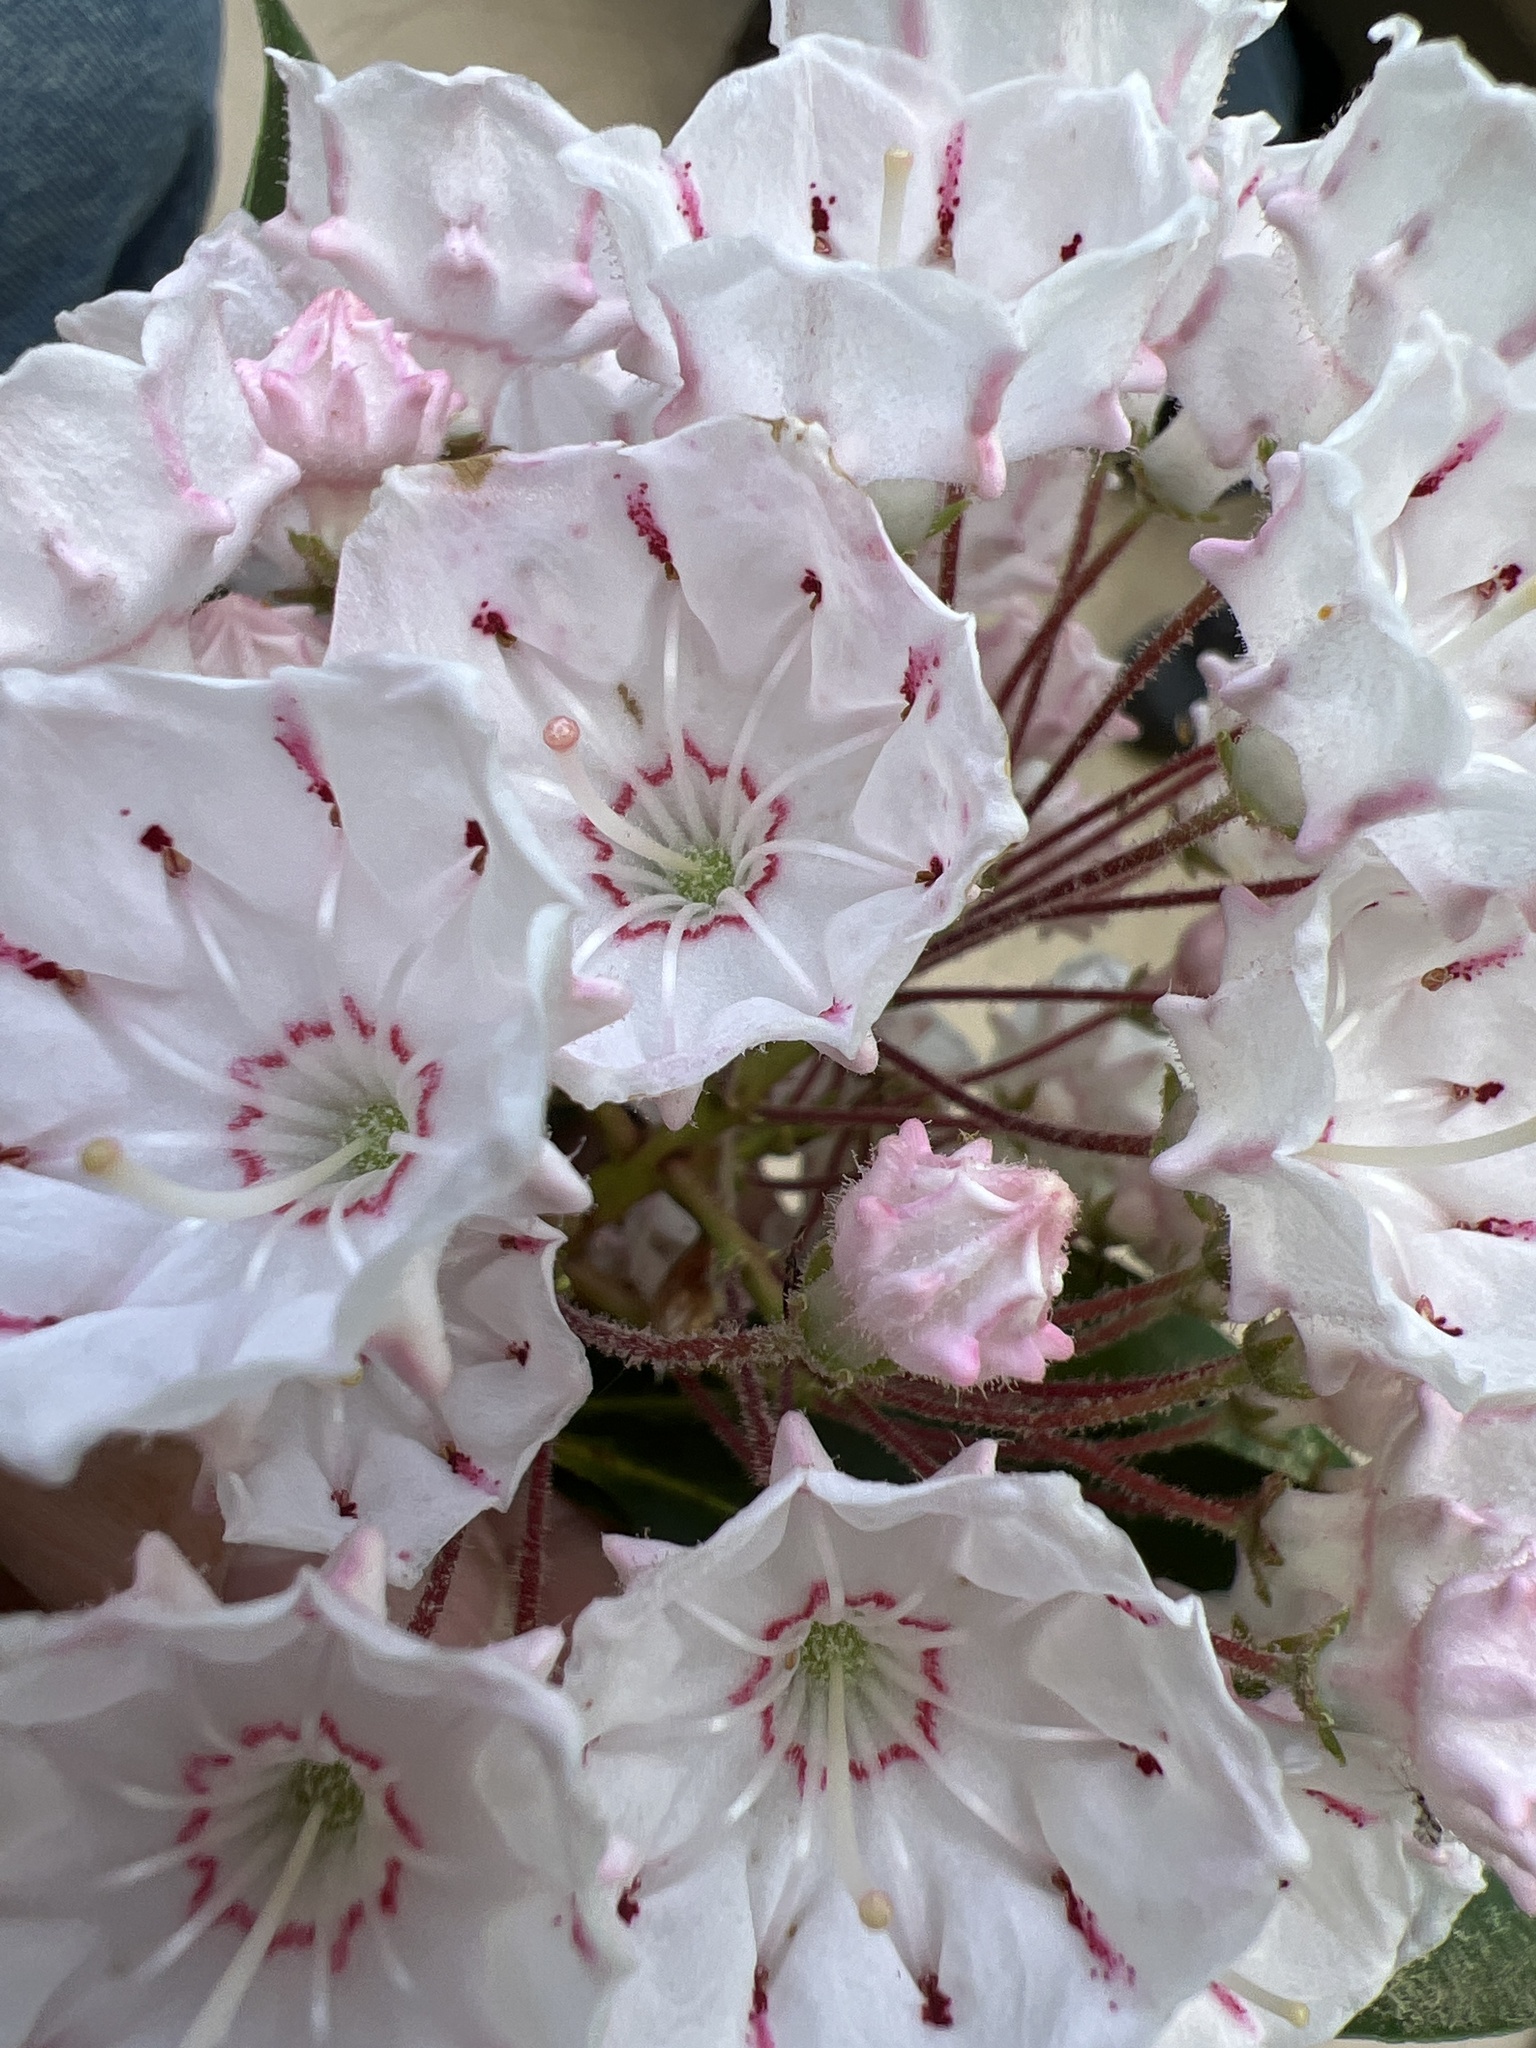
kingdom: Plantae
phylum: Tracheophyta
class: Magnoliopsida
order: Ericales
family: Ericaceae
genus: Kalmia
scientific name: Kalmia latifolia
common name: Mountain-laurel
